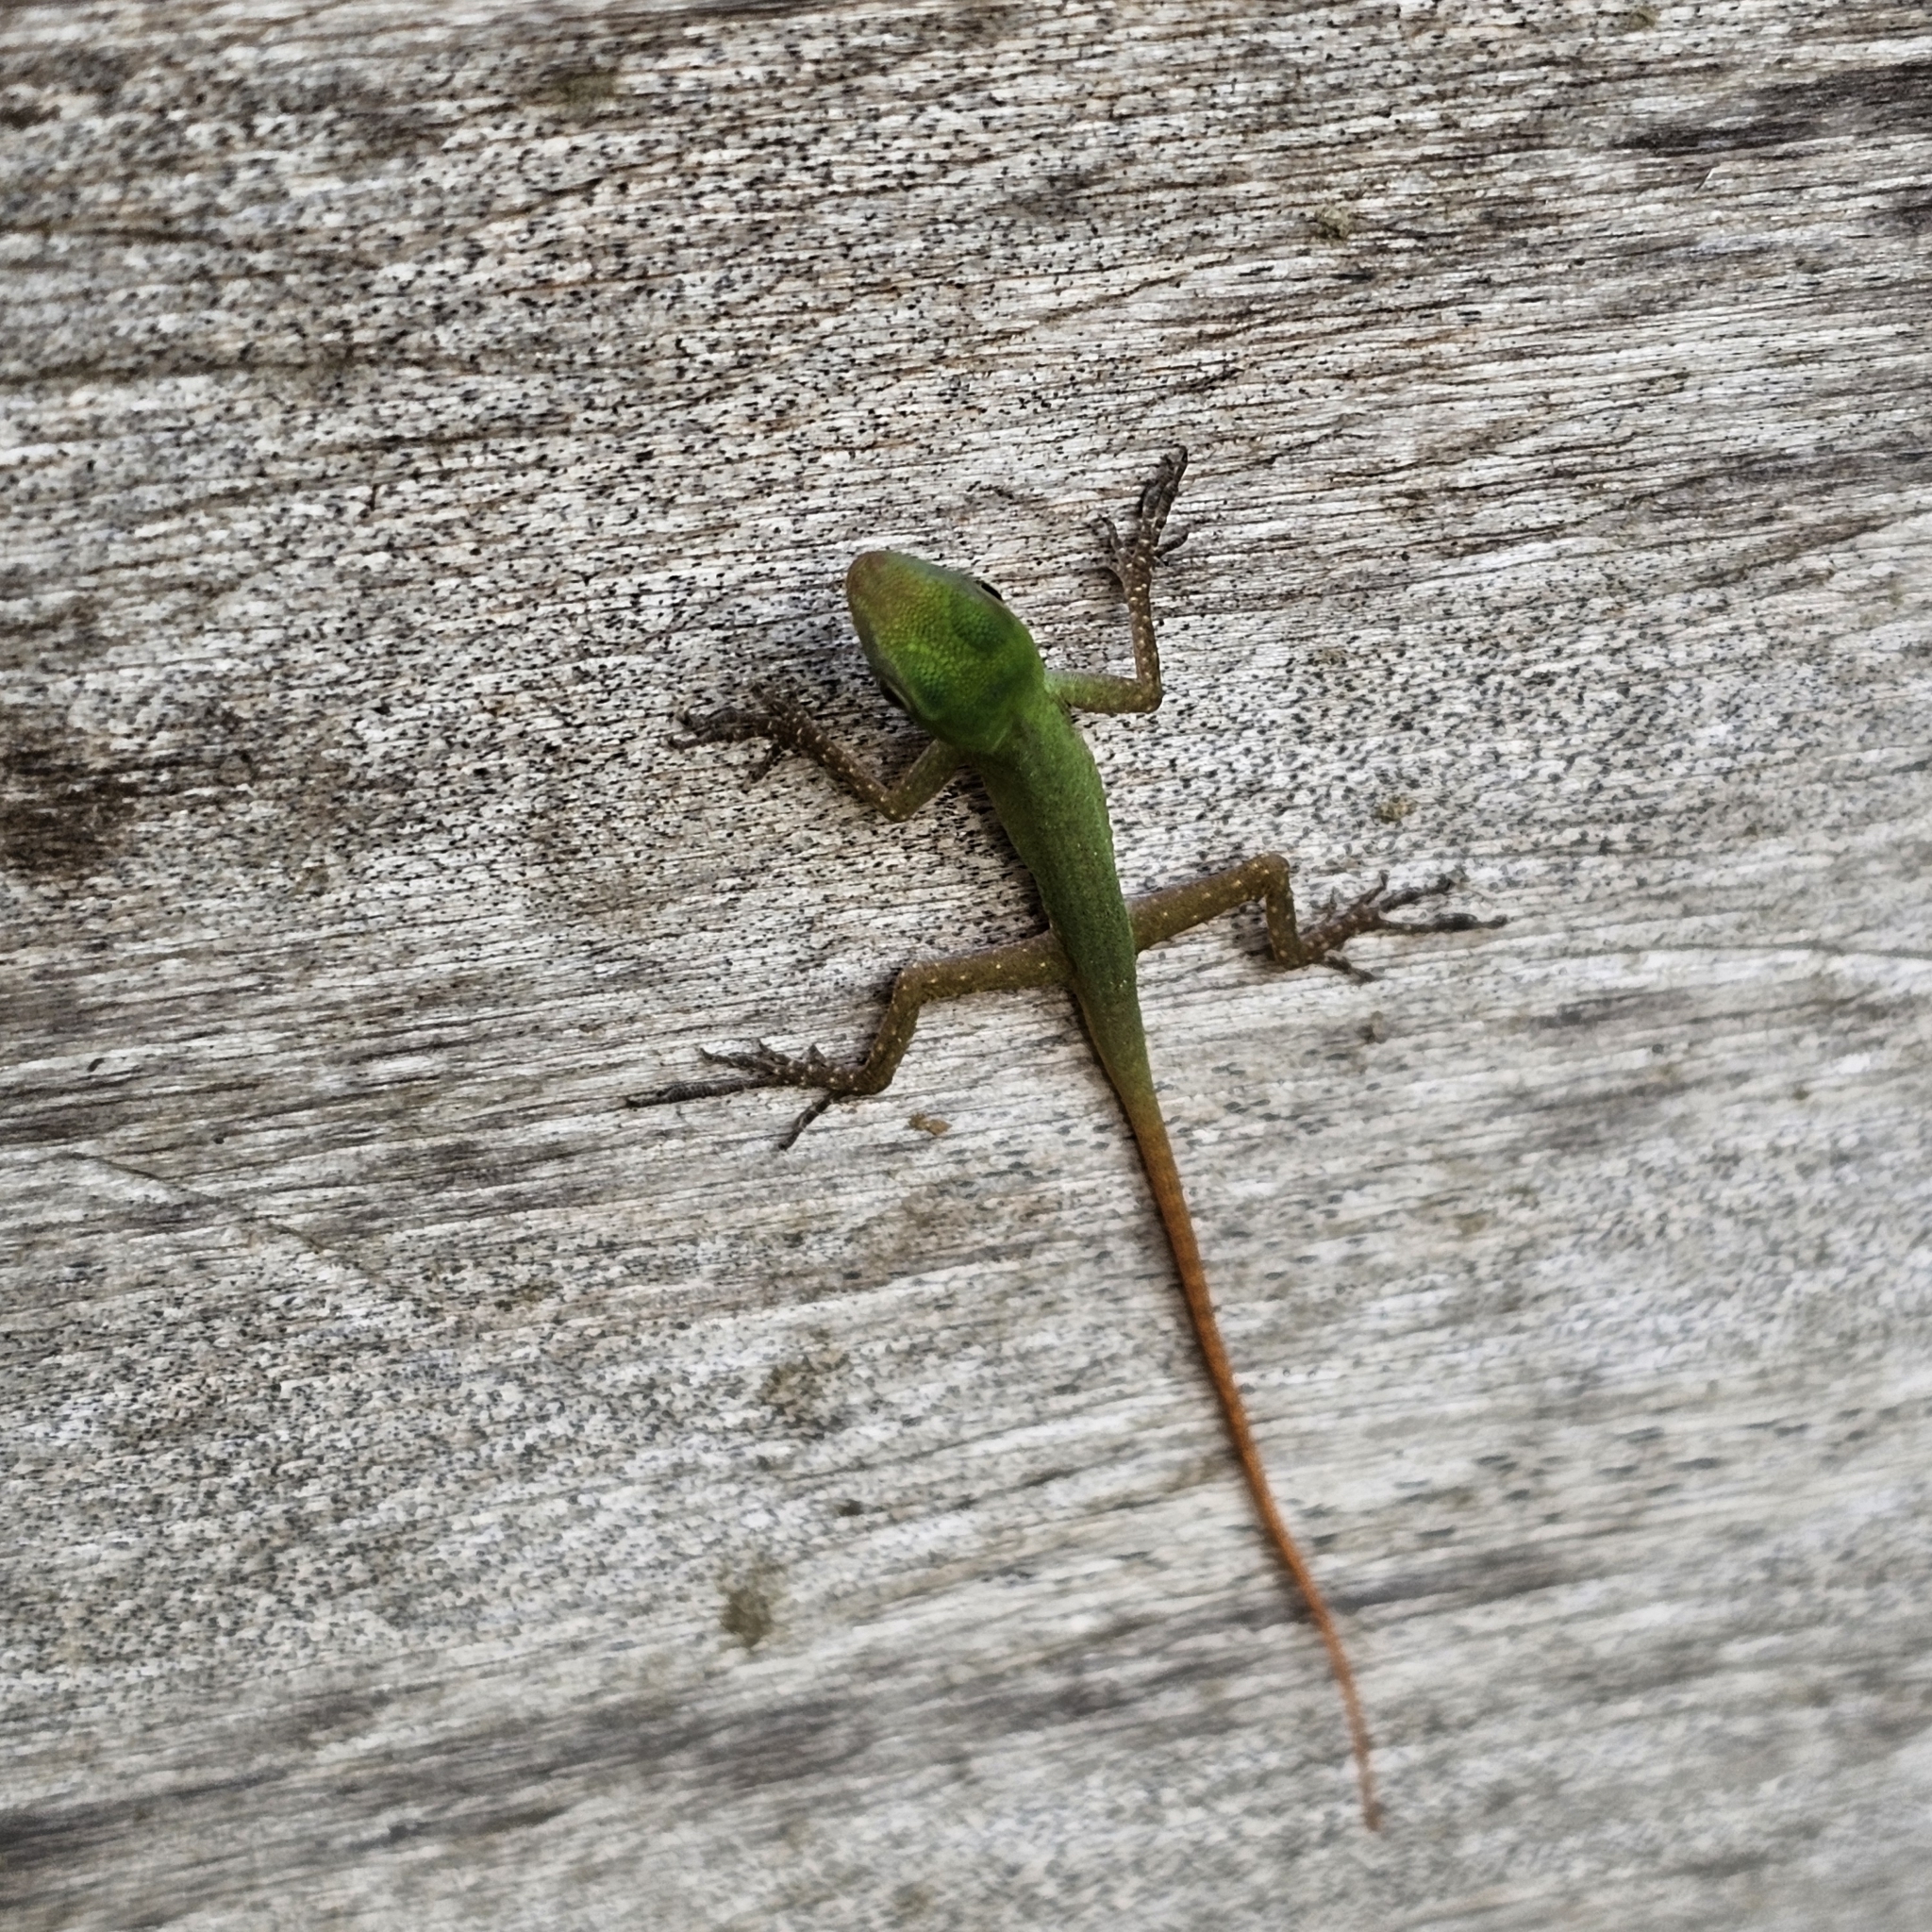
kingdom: Animalia
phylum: Chordata
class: Squamata
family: Dactyloidae
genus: Anolis
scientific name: Anolis chloris
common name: Boulenger's green anole
